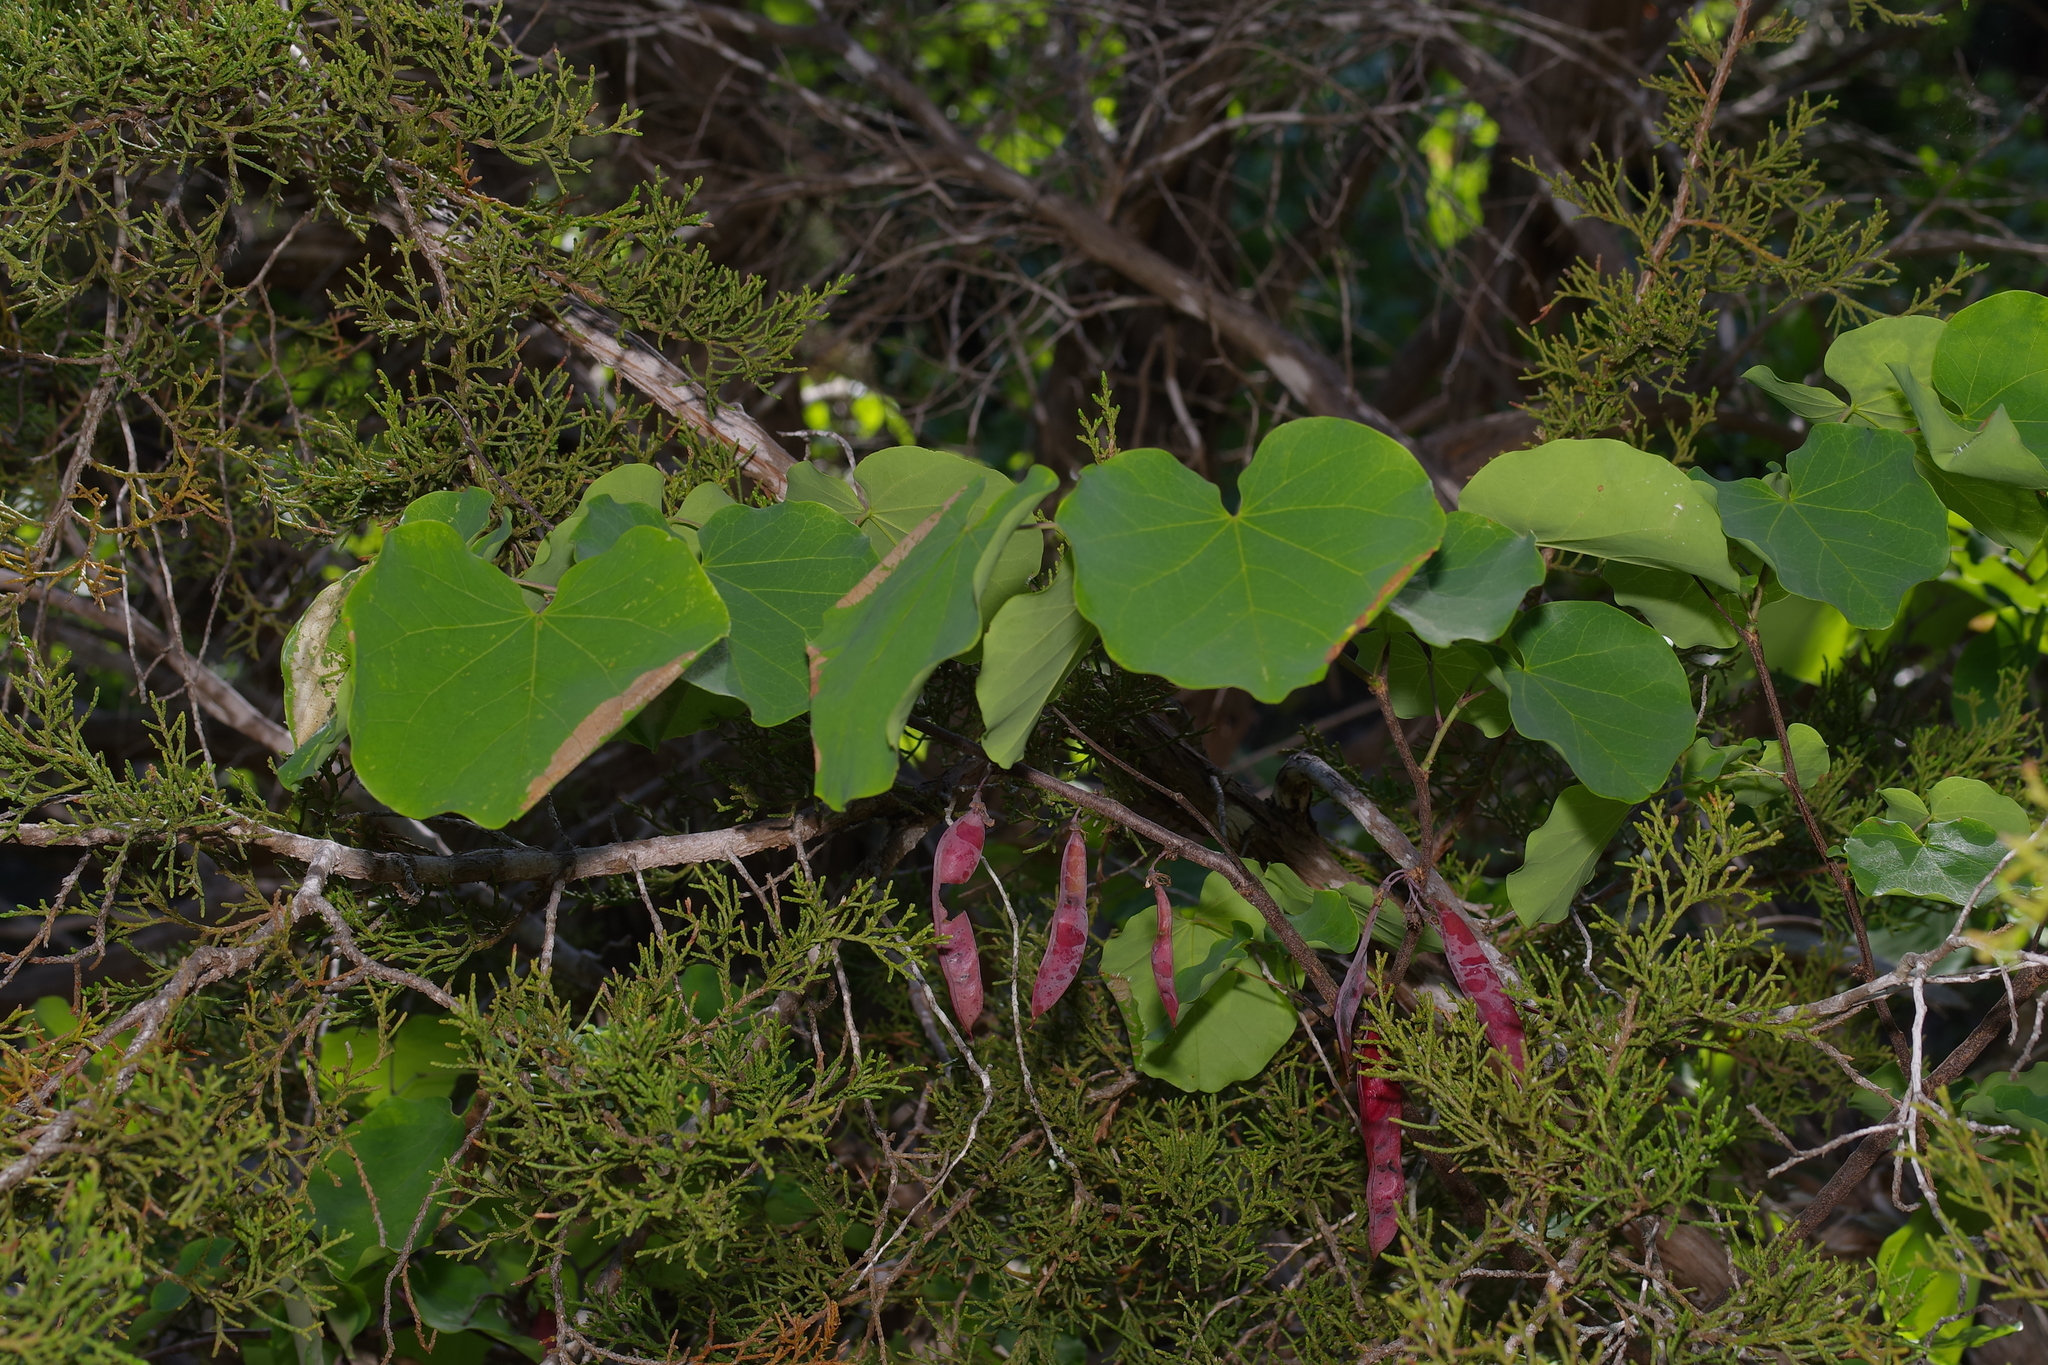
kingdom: Plantae
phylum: Tracheophyta
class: Magnoliopsida
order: Fabales
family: Fabaceae
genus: Cercis
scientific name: Cercis canadensis
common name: Eastern redbud
